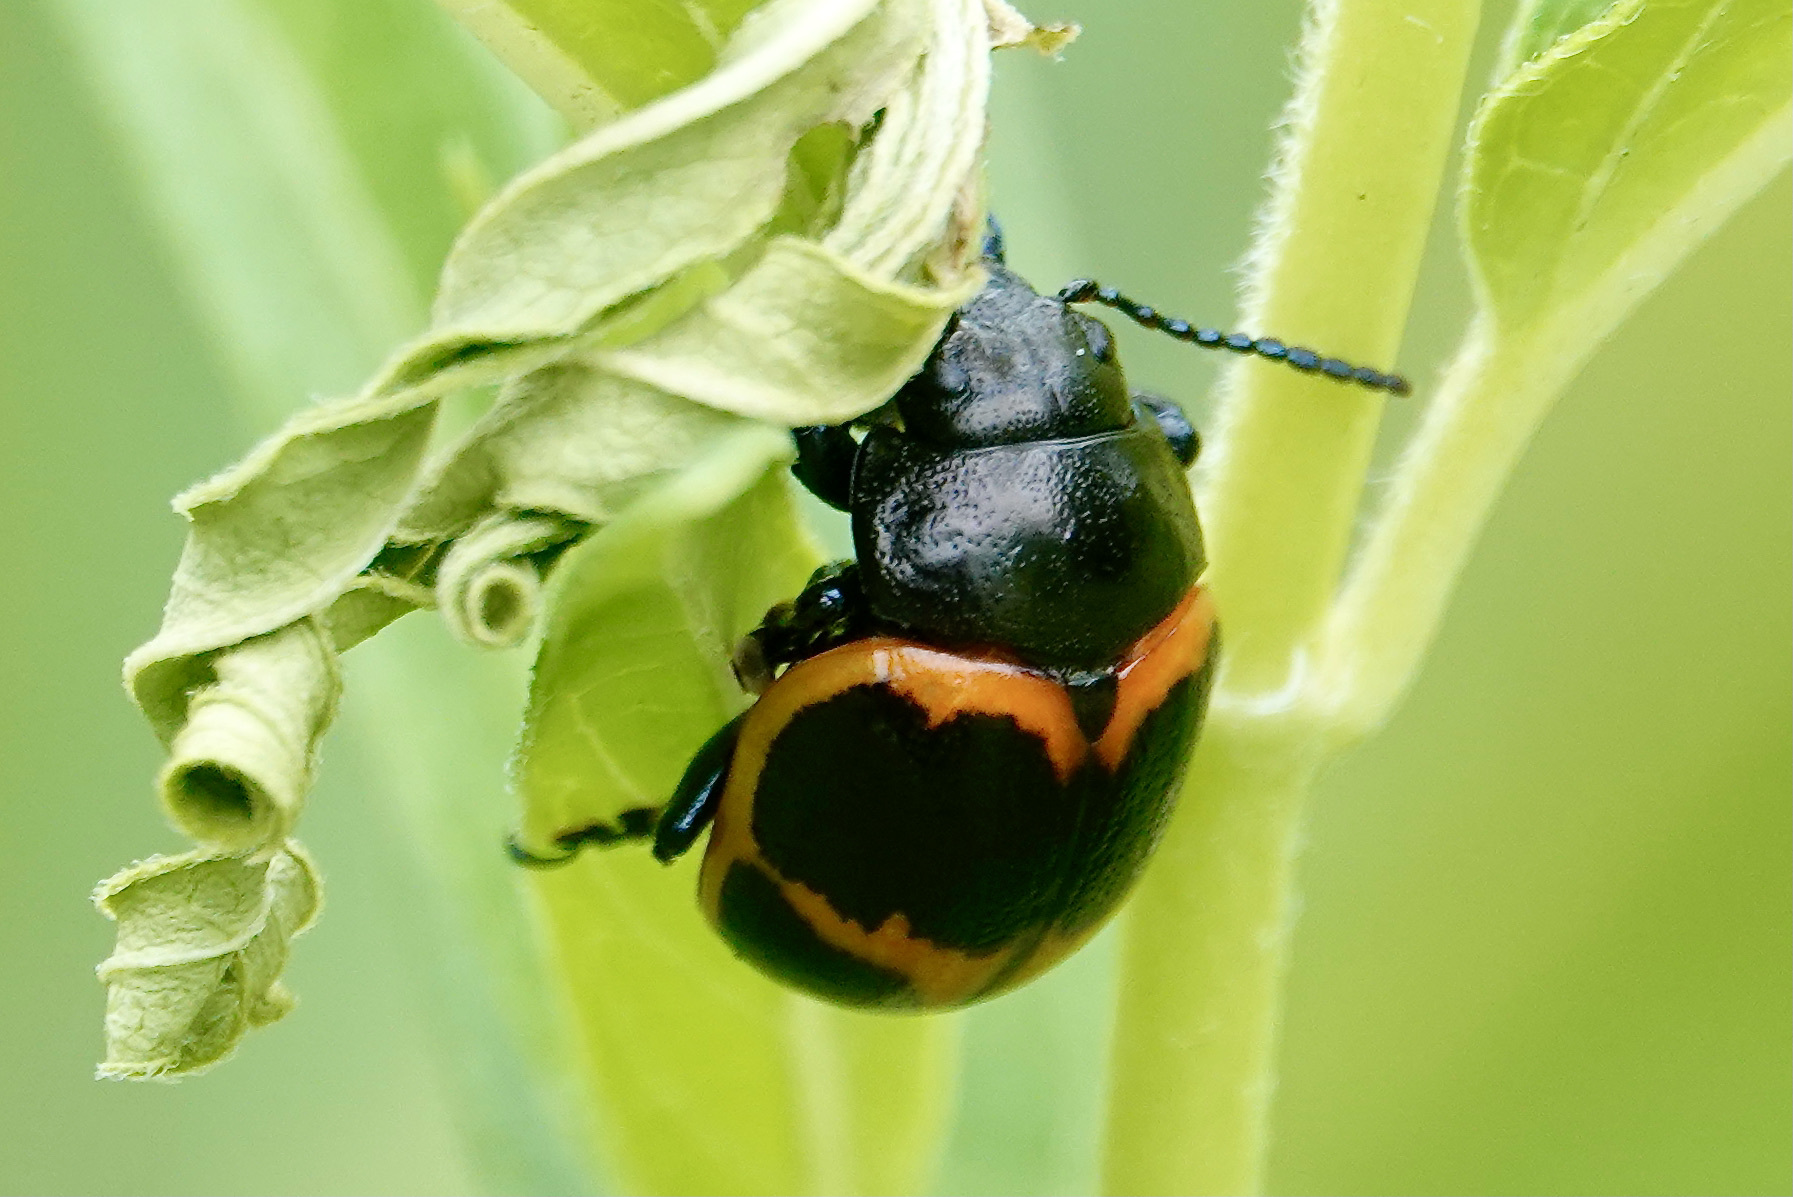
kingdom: Animalia
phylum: Arthropoda
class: Insecta
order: Coleoptera
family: Chrysomelidae
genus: Labidomera
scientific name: Labidomera clivicollis
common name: Swamp milkweed leaf beetle
